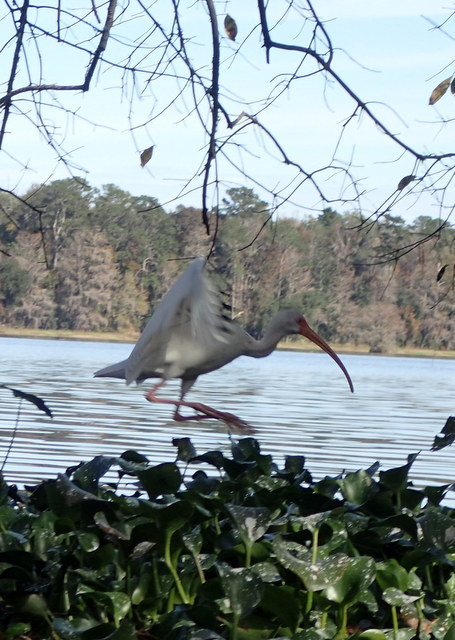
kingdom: Animalia
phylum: Chordata
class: Aves
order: Pelecaniformes
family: Threskiornithidae
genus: Eudocimus
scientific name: Eudocimus albus
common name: White ibis
